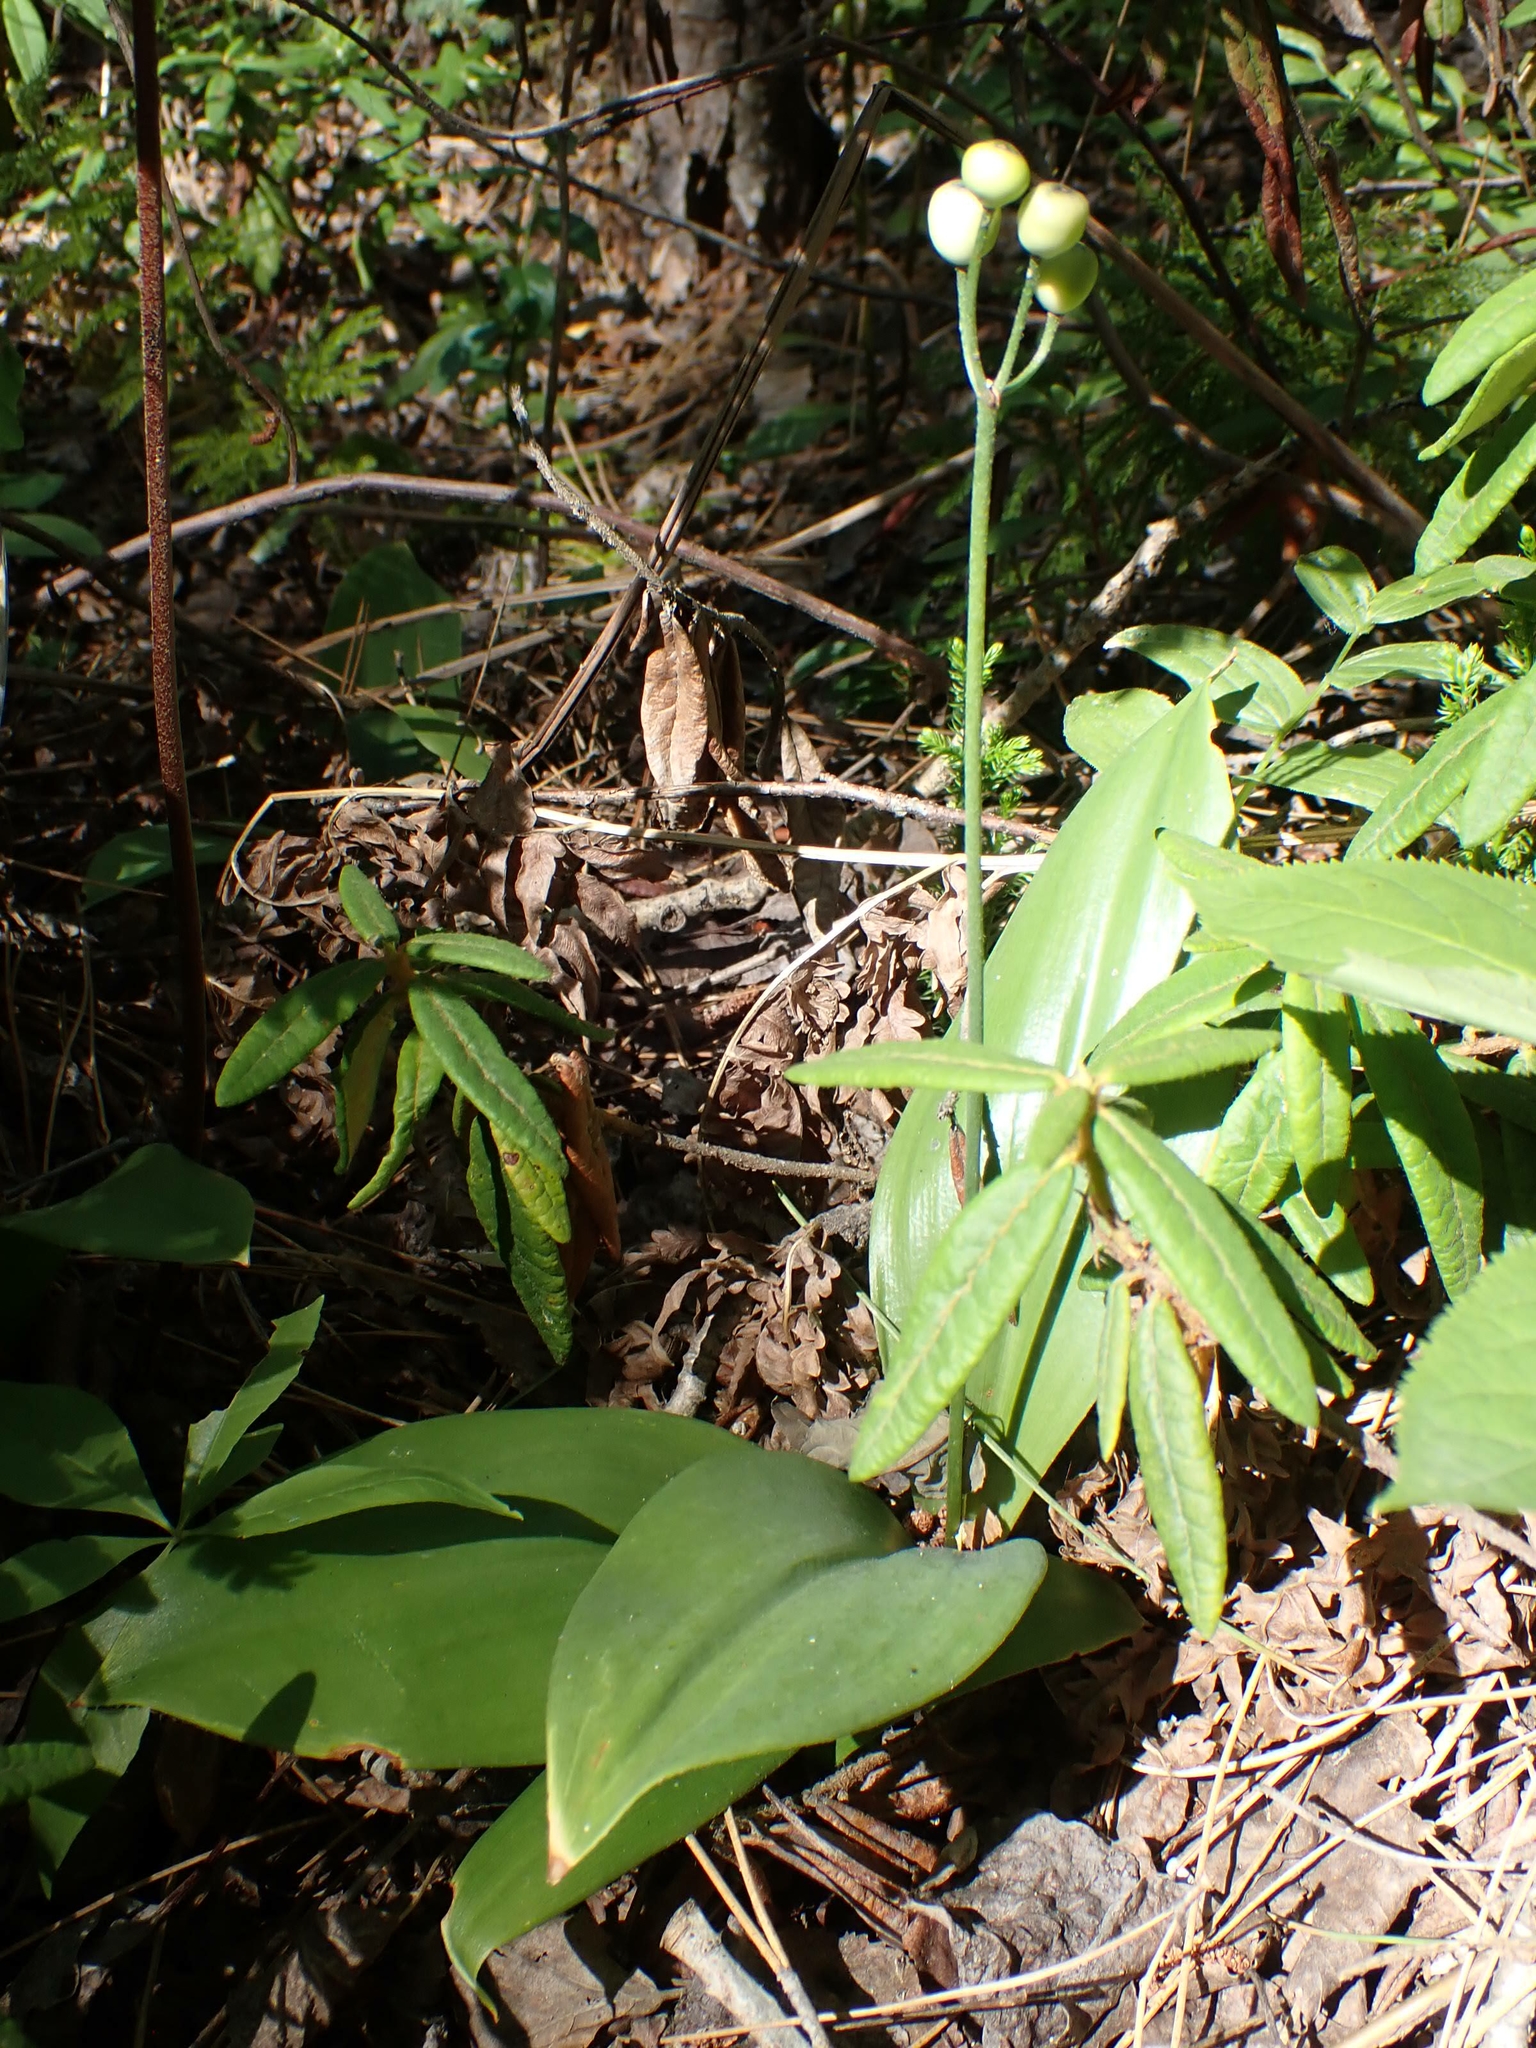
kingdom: Plantae
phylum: Tracheophyta
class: Liliopsida
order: Liliales
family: Liliaceae
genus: Clintonia
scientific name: Clintonia borealis
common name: Yellow clintonia
